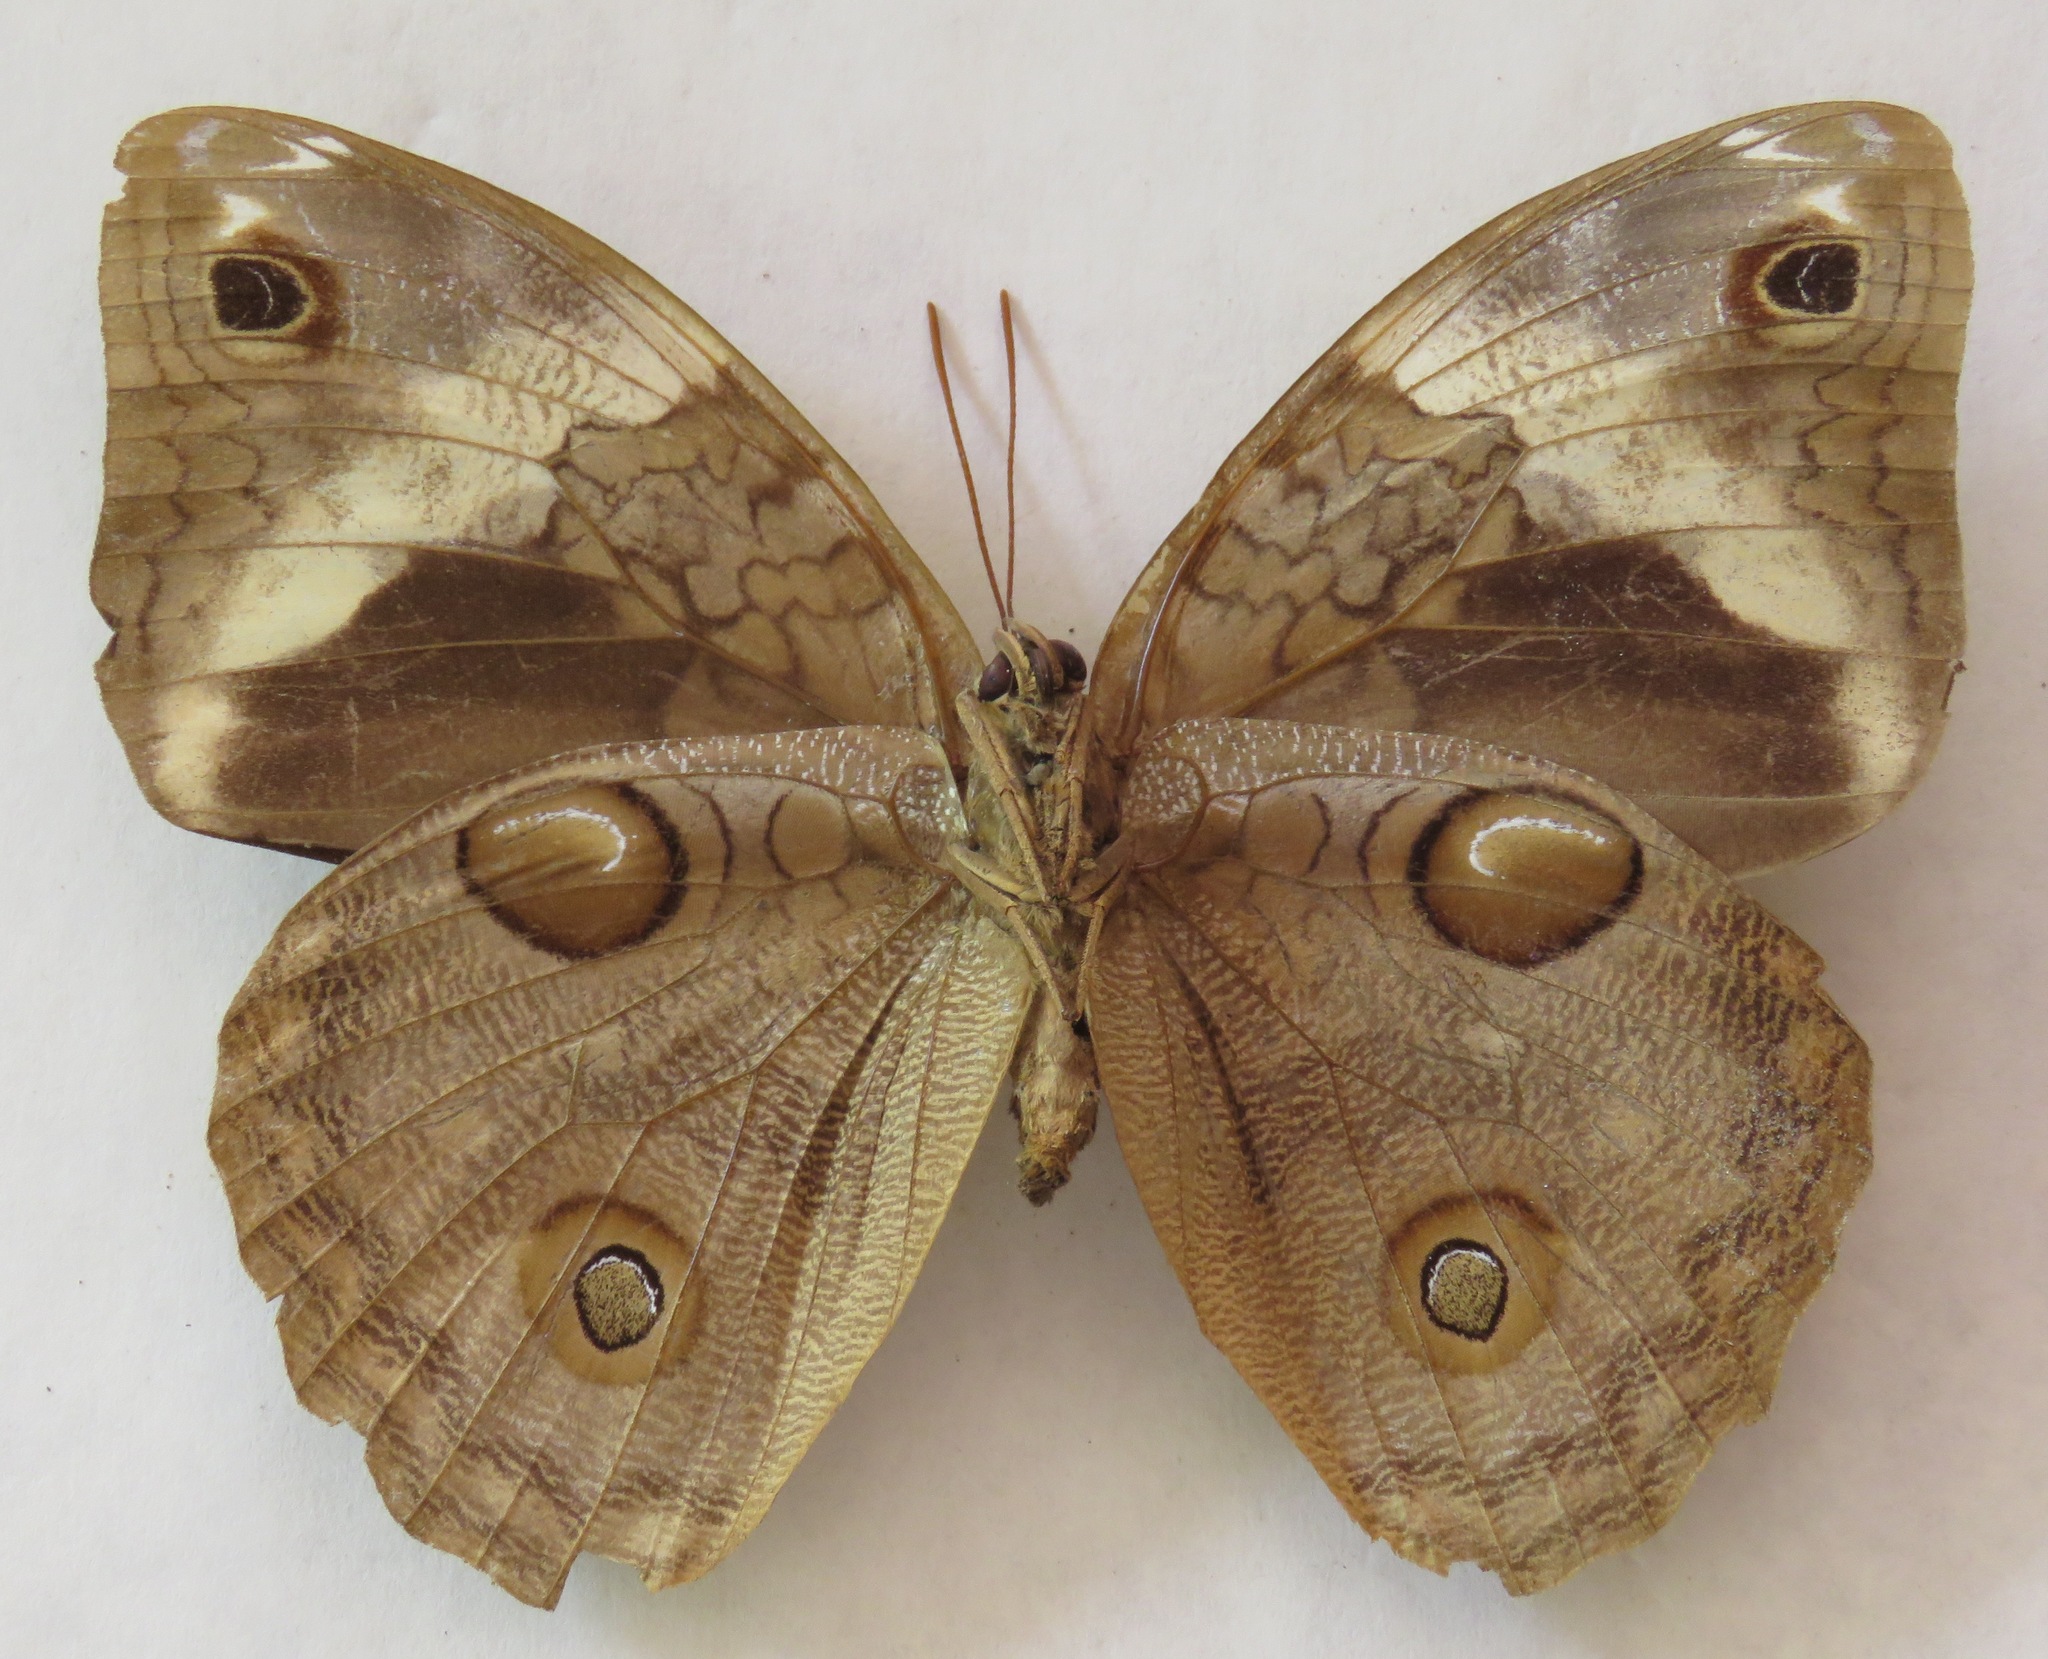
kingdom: Animalia
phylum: Arthropoda
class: Insecta
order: Lepidoptera
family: Nymphalidae
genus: Opsiphanes
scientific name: Opsiphanes cassiae
